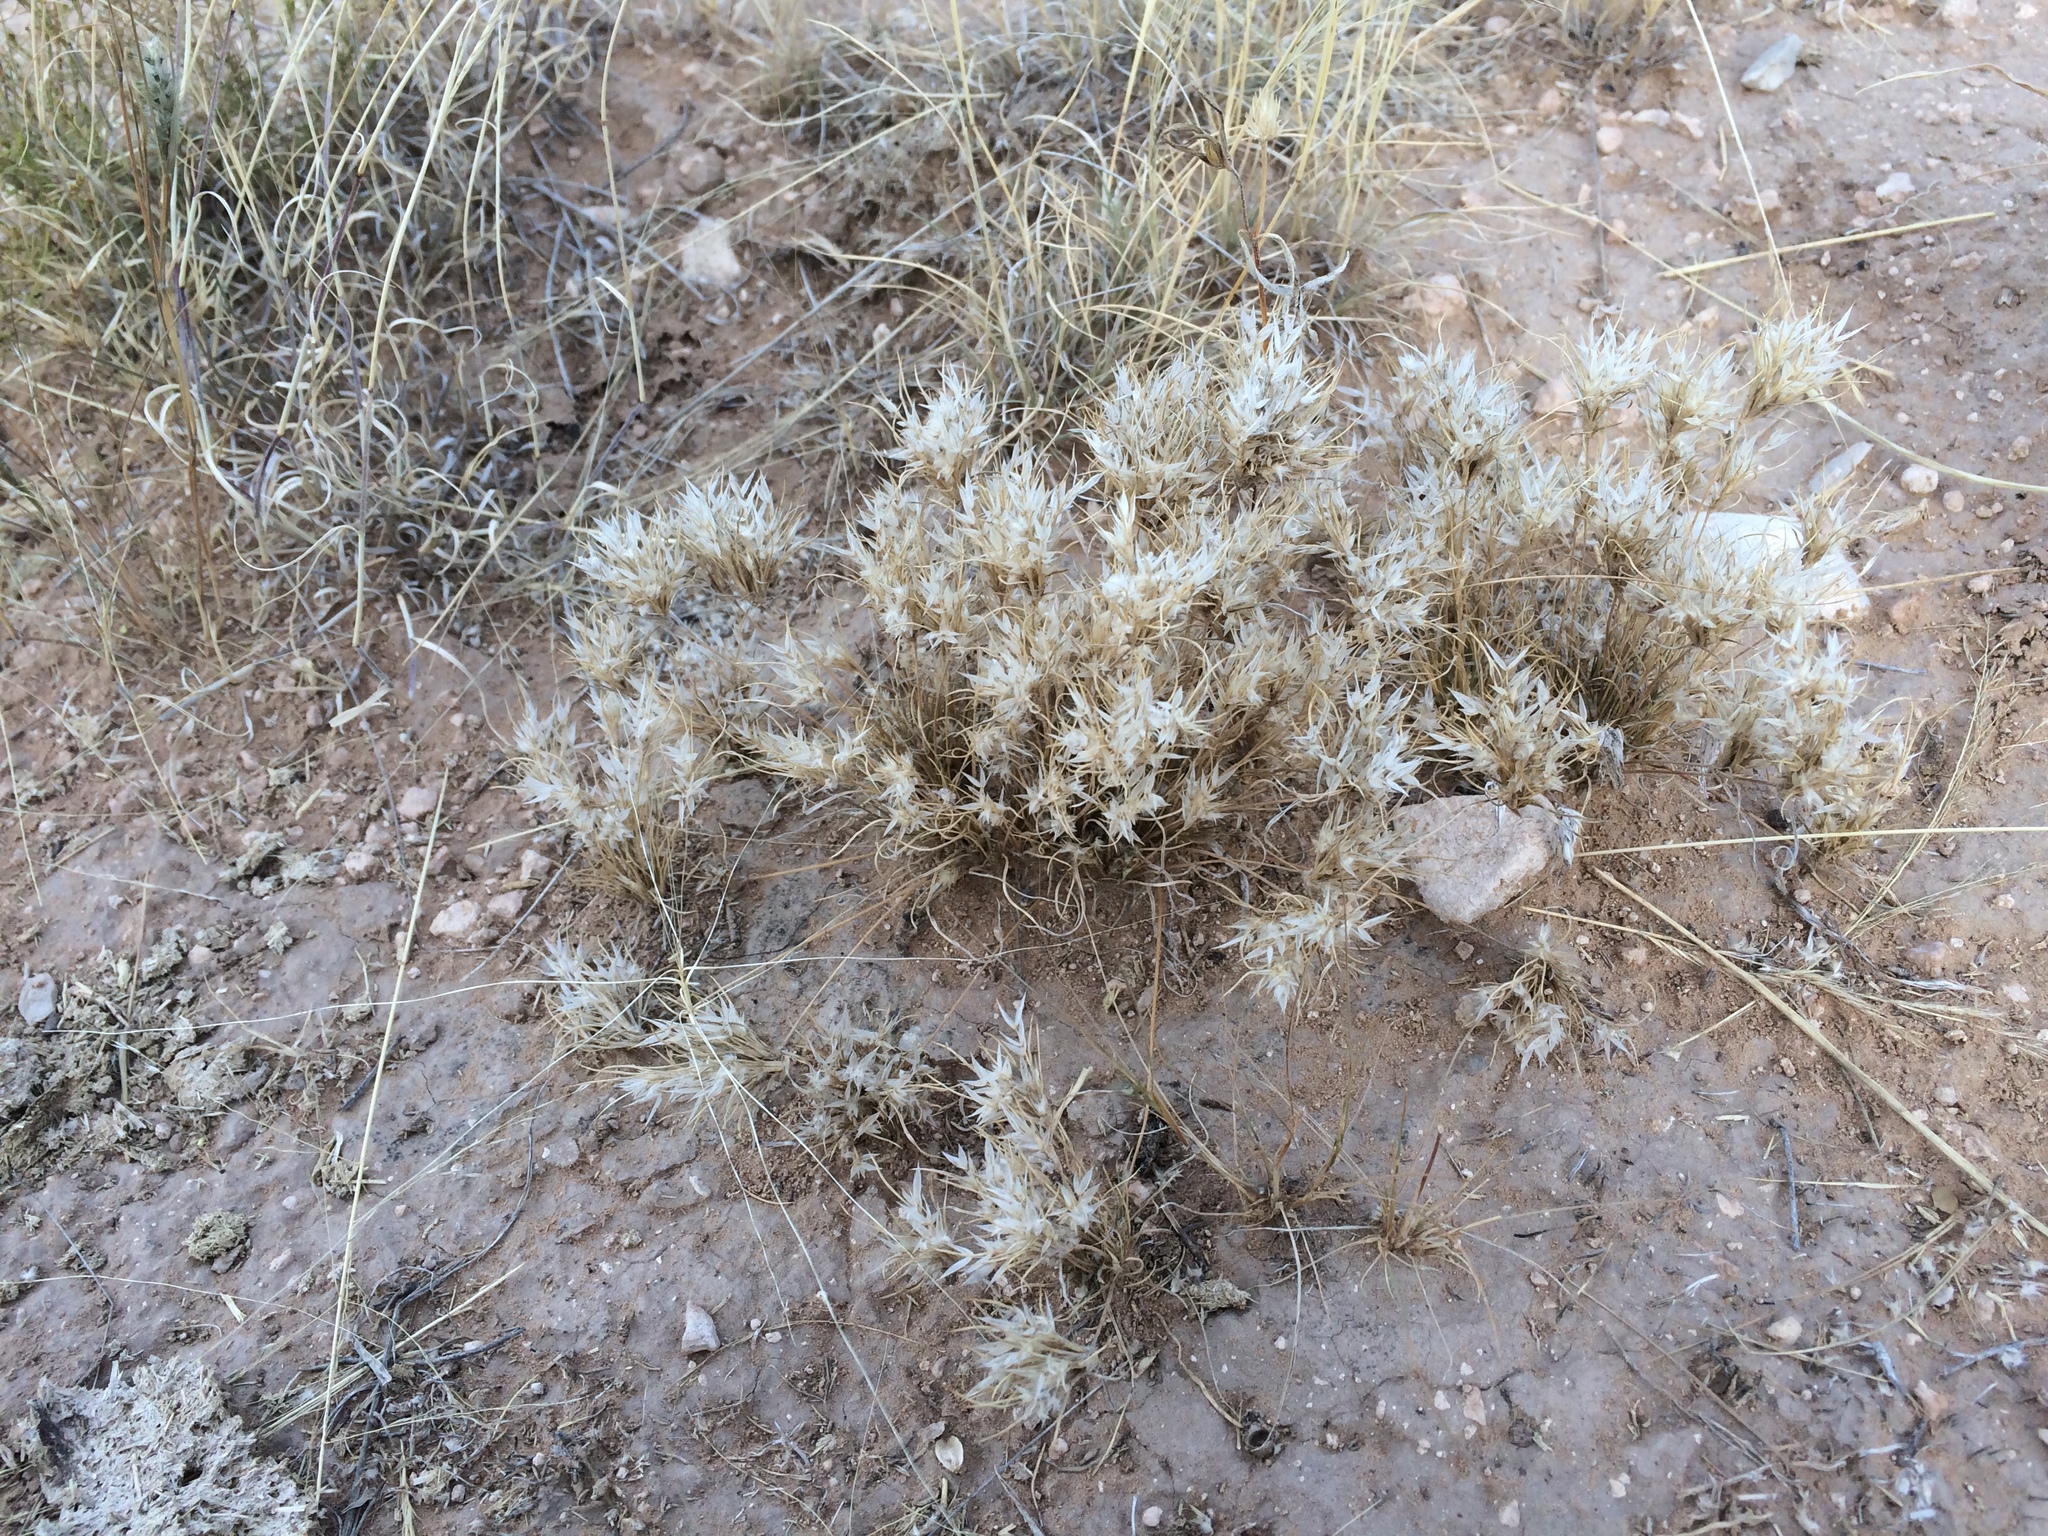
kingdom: Plantae
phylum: Tracheophyta
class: Liliopsida
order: Poales
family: Poaceae
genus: Dasyochloa
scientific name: Dasyochloa pulchella
